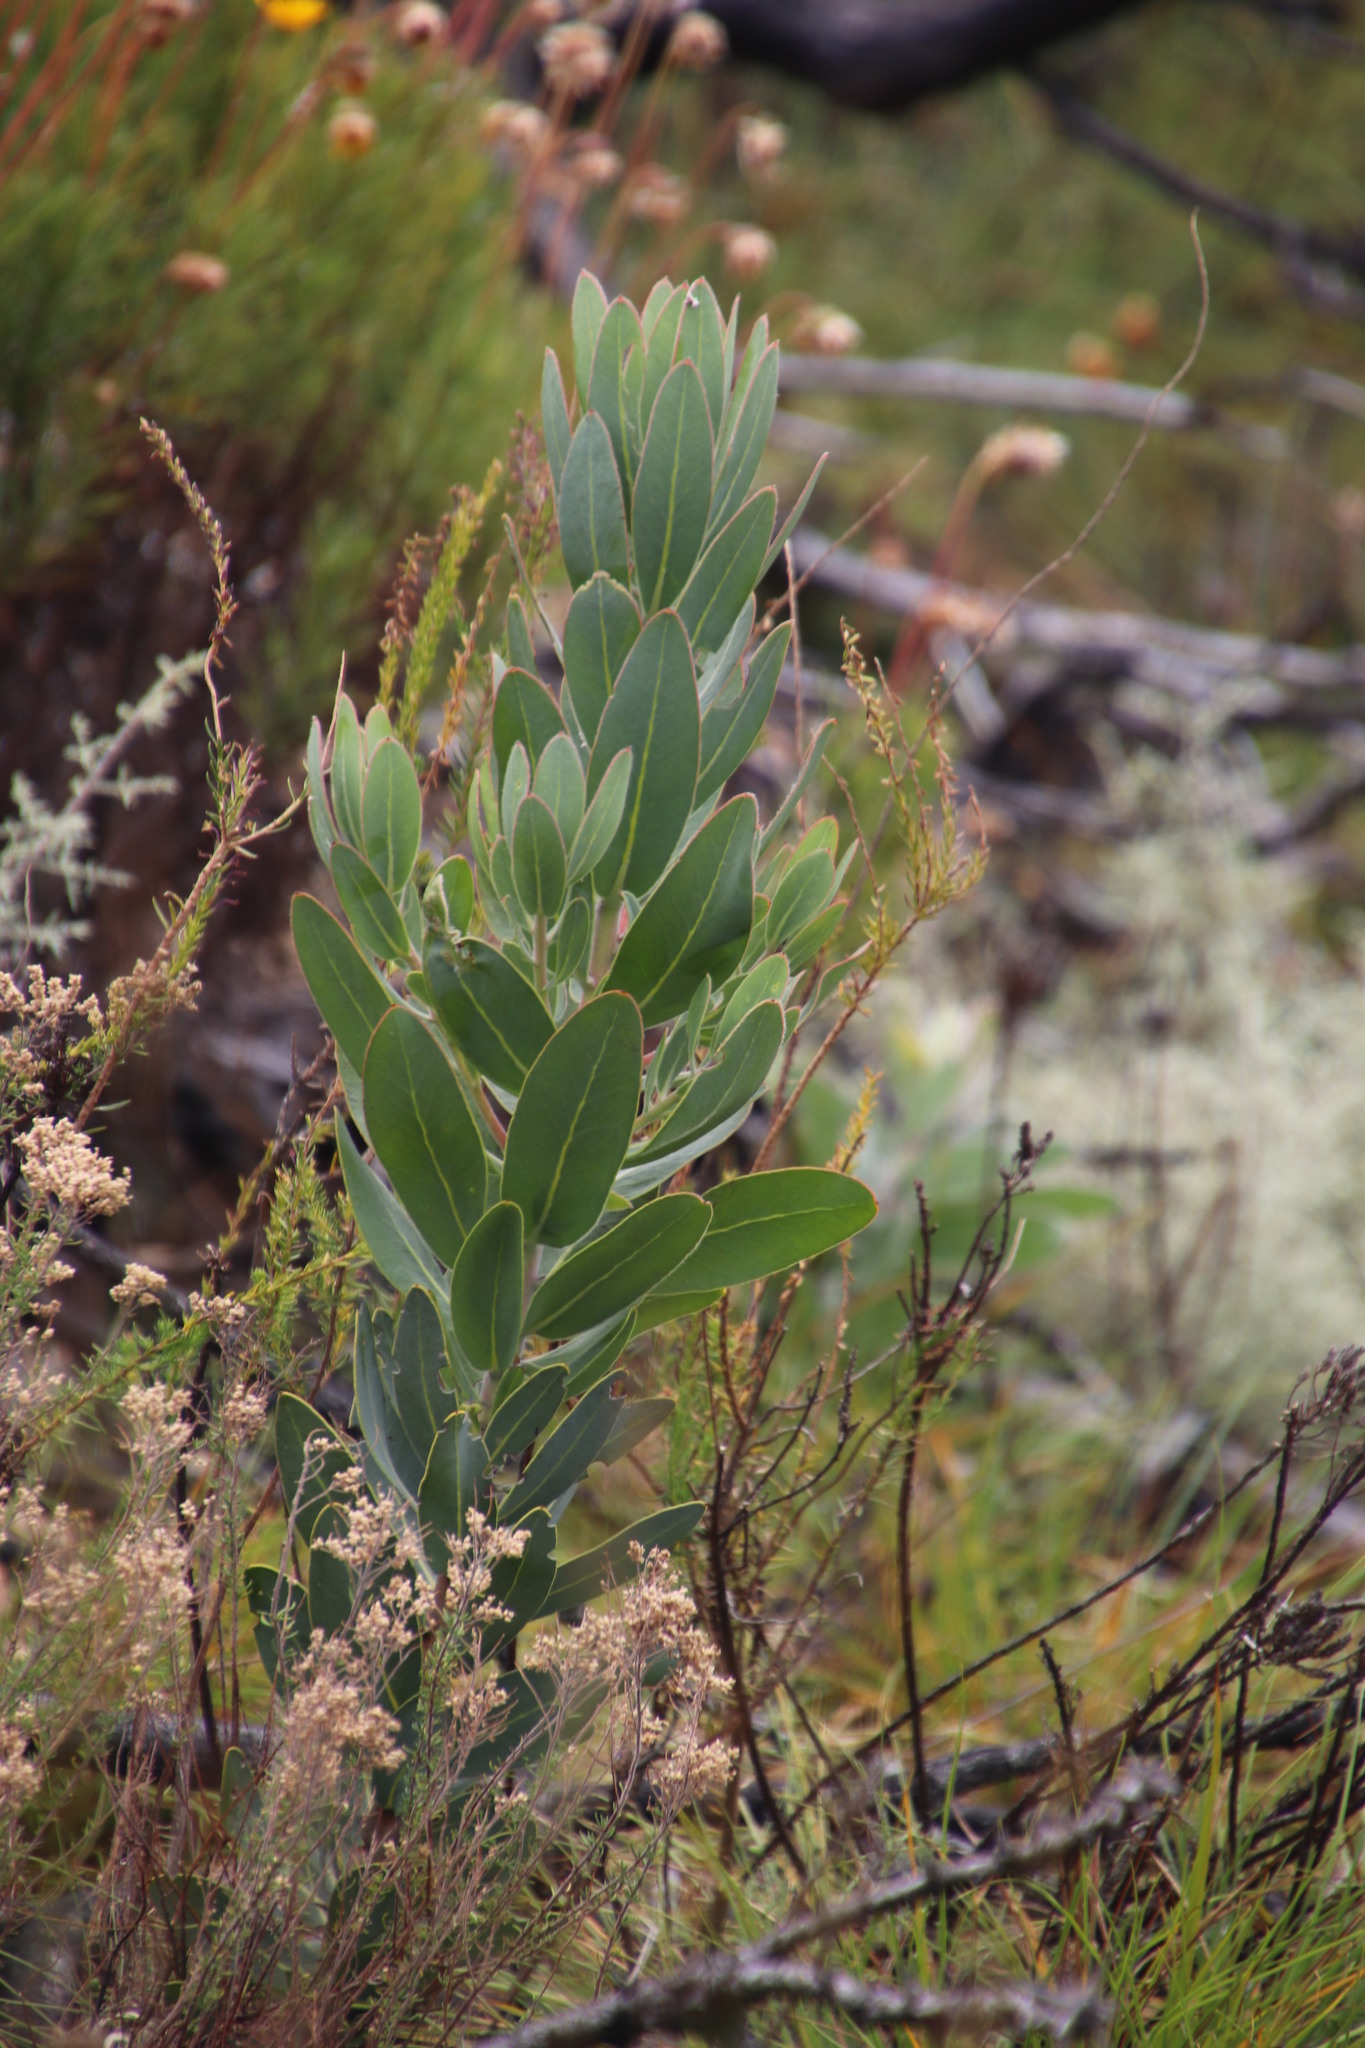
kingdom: Plantae
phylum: Tracheophyta
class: Magnoliopsida
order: Proteales
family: Proteaceae
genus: Protea
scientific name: Protea laurifolia
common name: Grey-leaf sugarbsh
